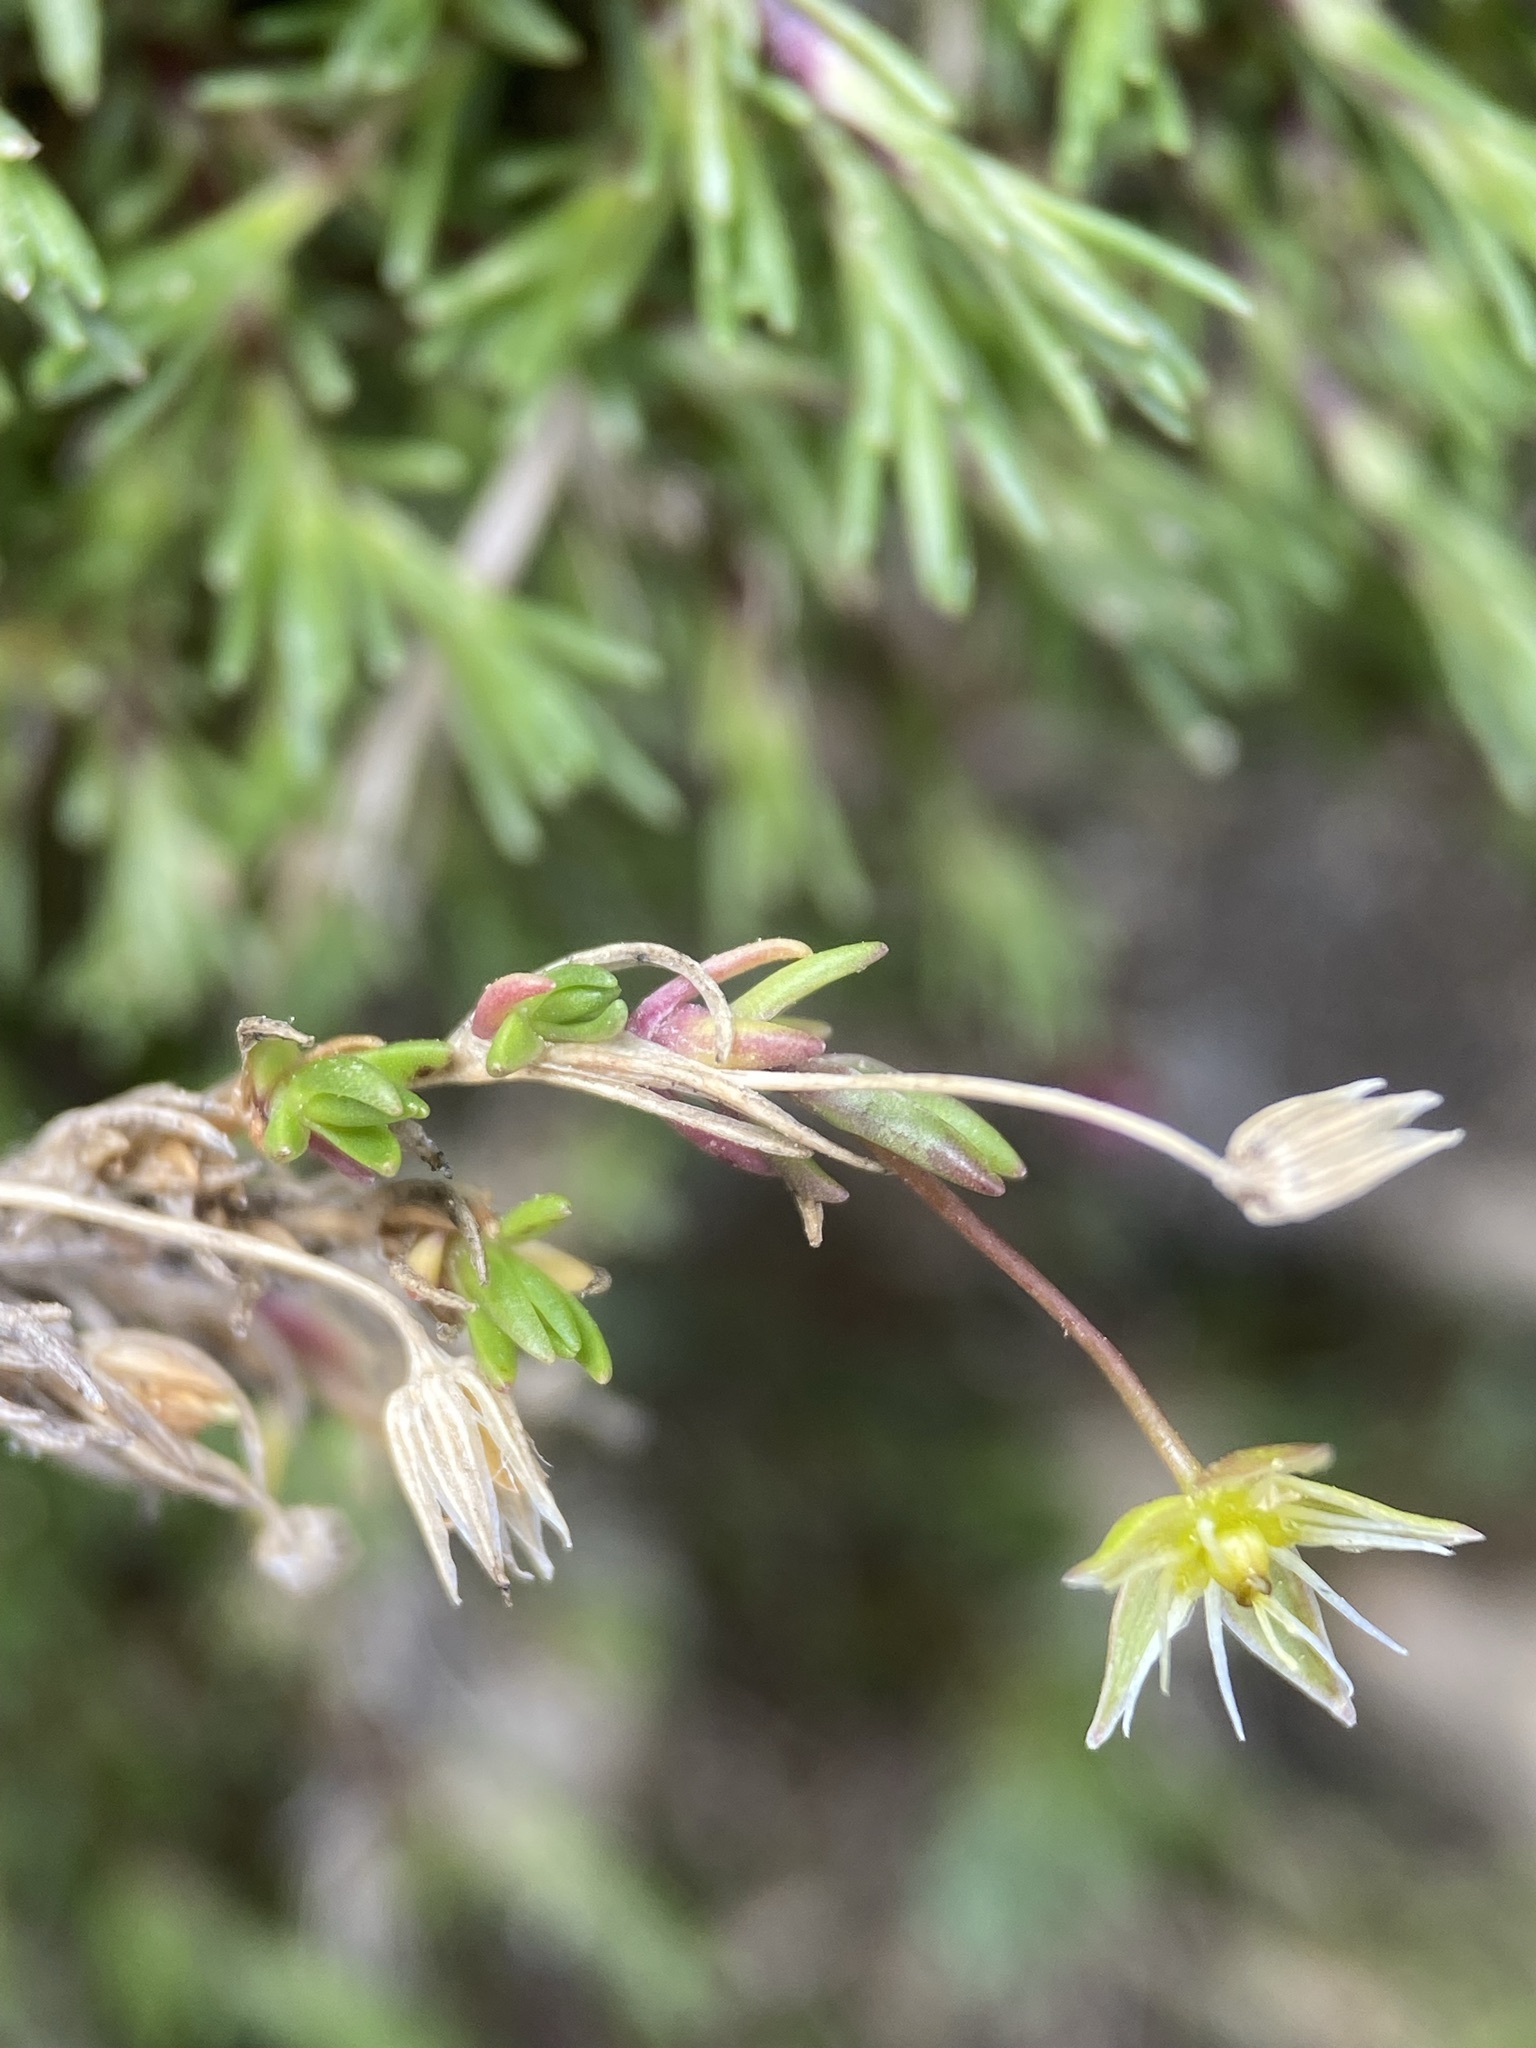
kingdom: Plantae
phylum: Tracheophyta
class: Magnoliopsida
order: Caryophyllales
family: Caryophyllaceae
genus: Sabulina
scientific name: Sabulina austromontana
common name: Columbia stitchwort
